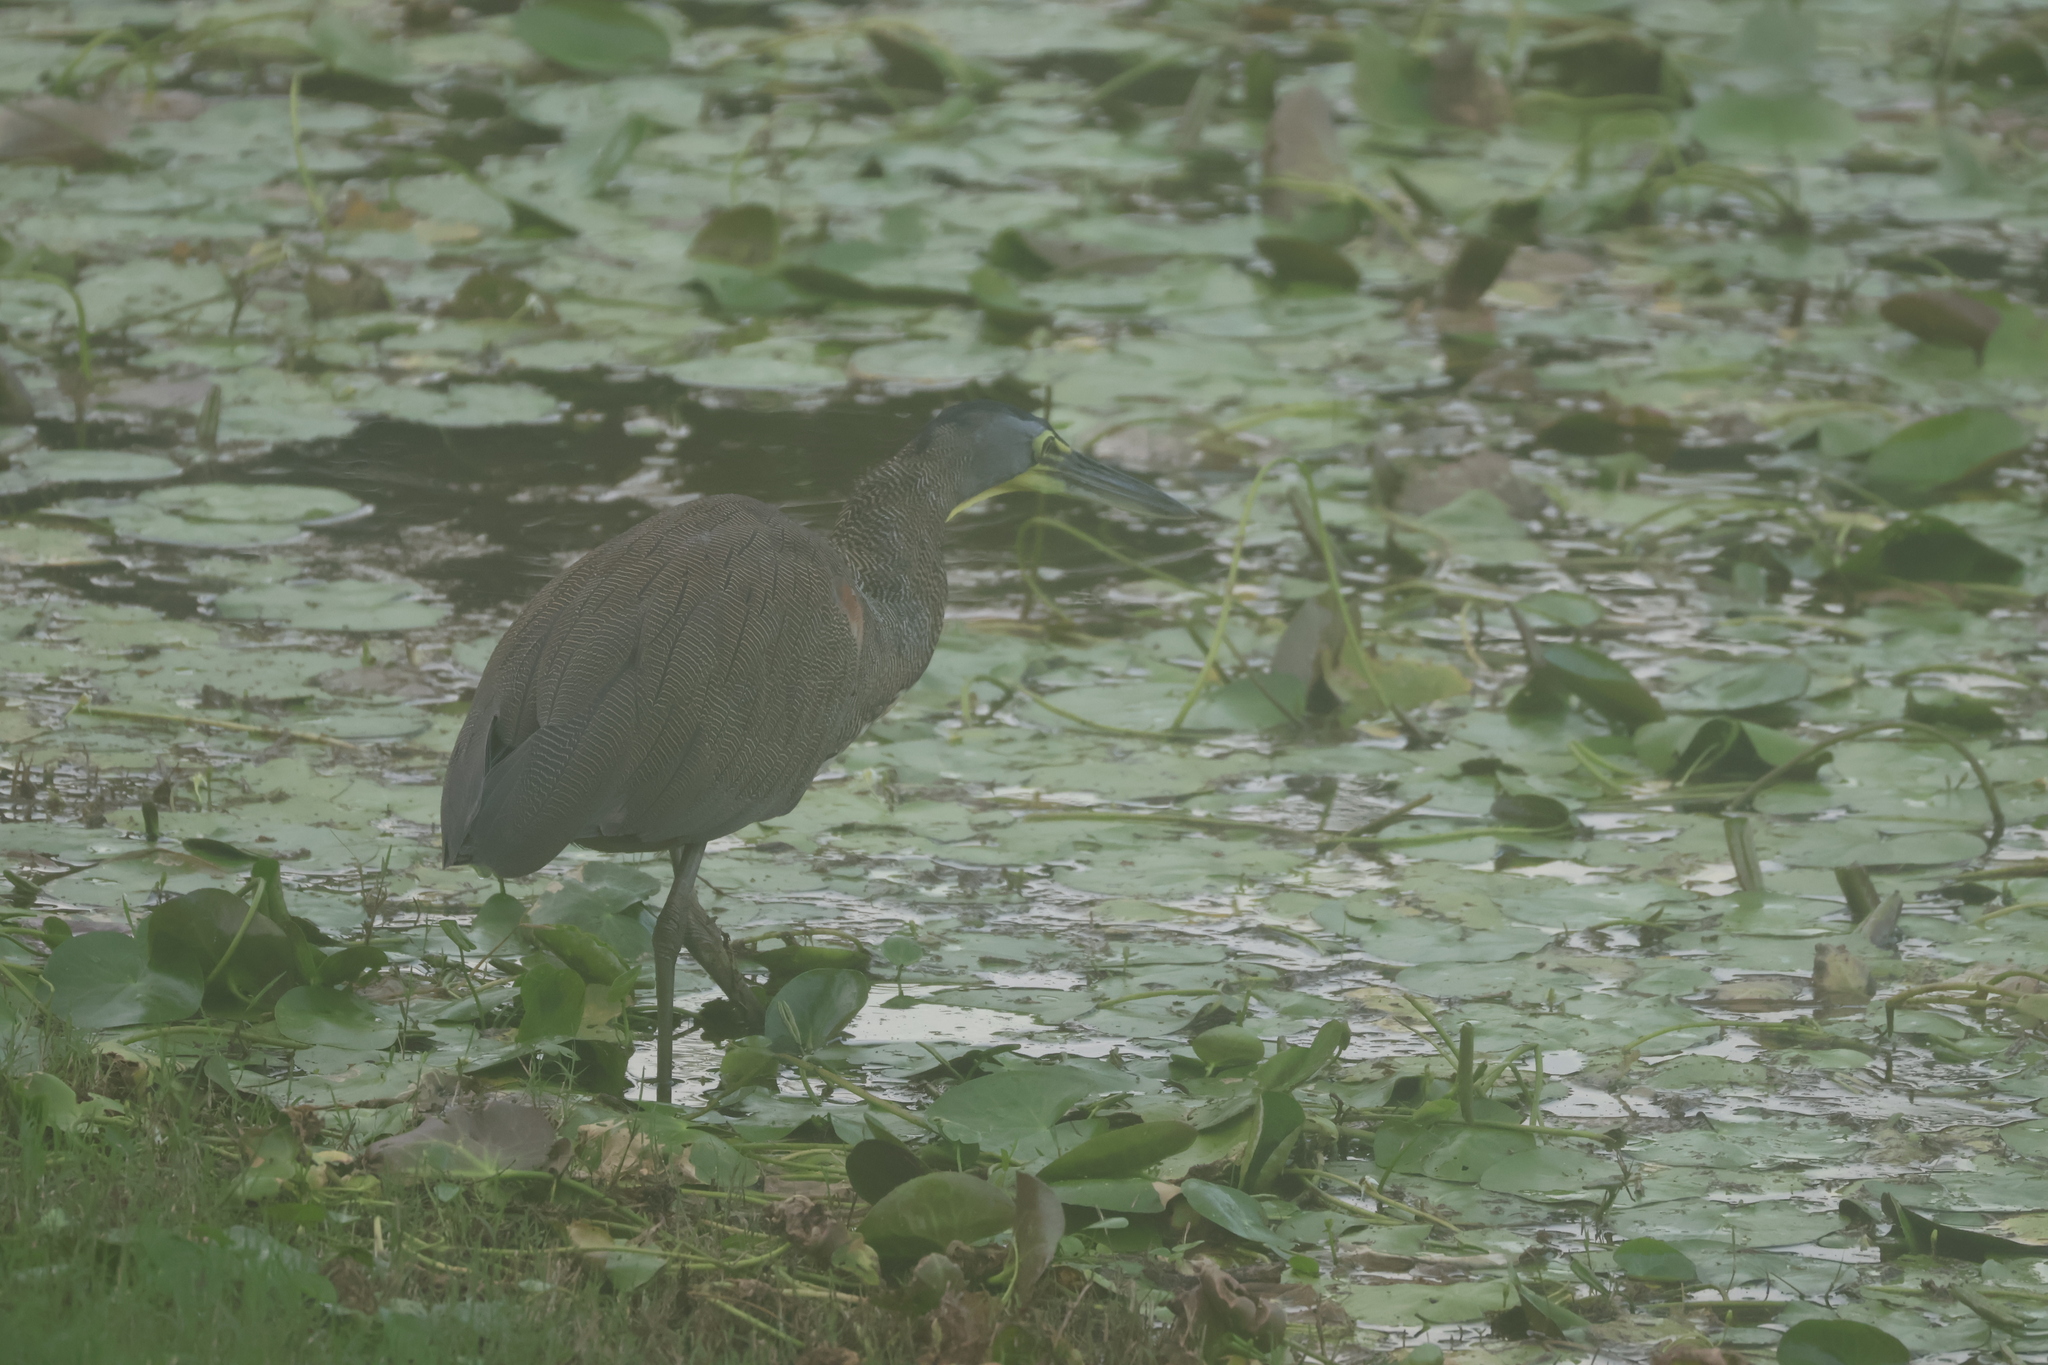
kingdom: Animalia
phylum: Chordata
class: Aves
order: Pelecaniformes
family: Ardeidae
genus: Tigrisoma
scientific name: Tigrisoma mexicanum
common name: Bare-throated tiger-heron
